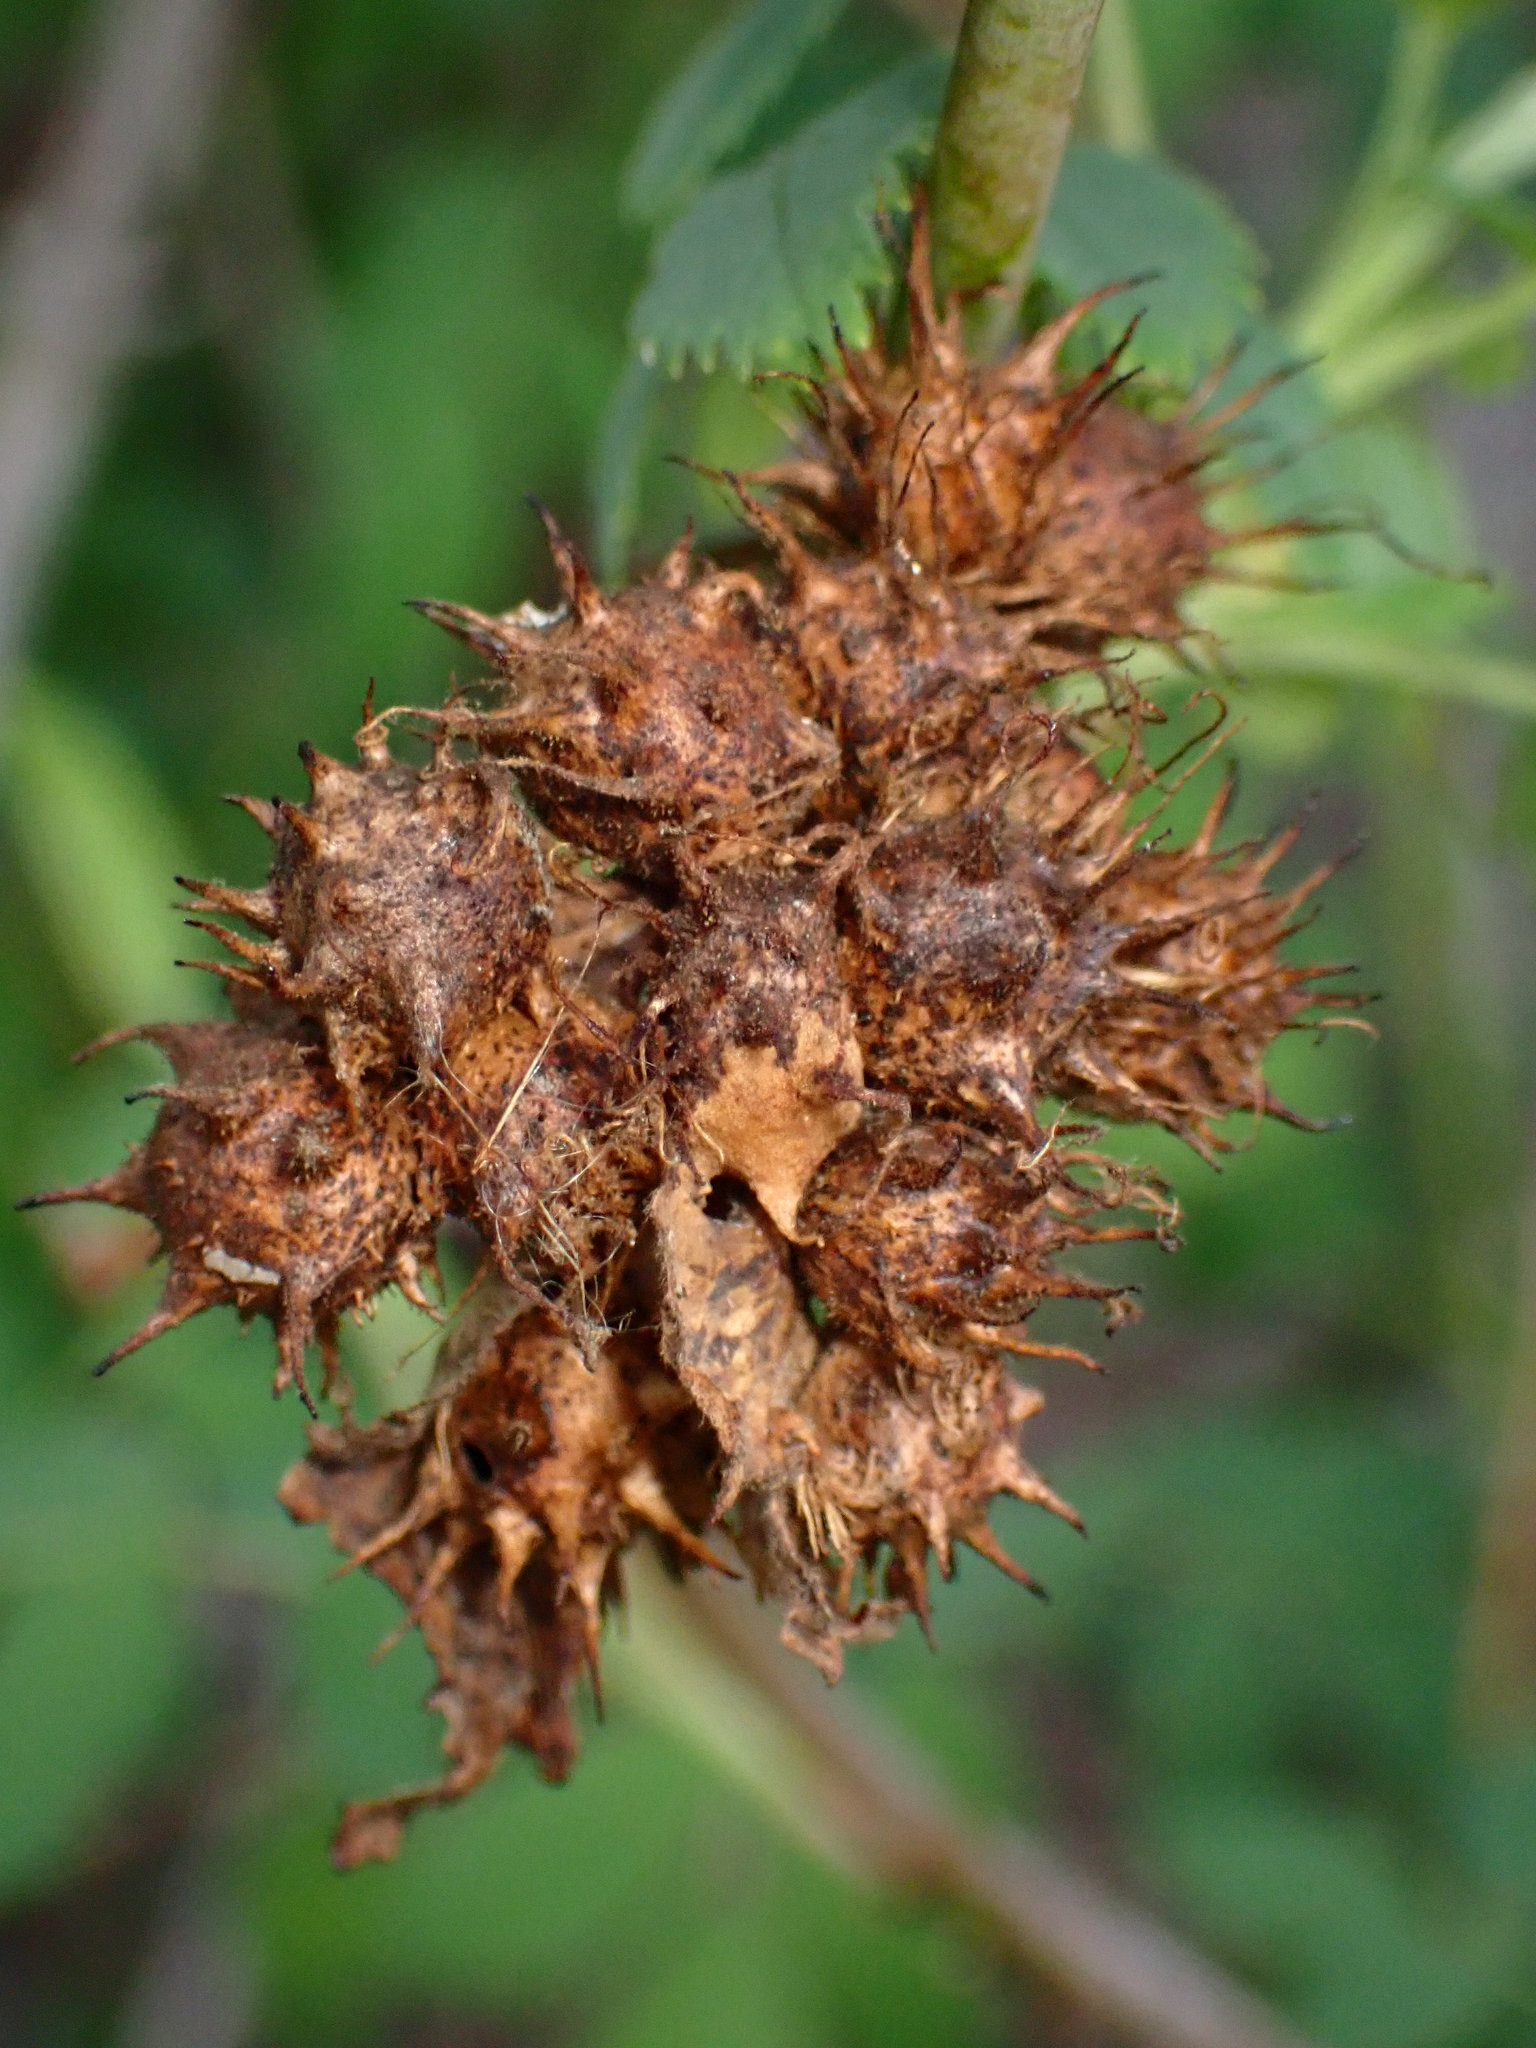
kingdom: Animalia
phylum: Arthropoda
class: Insecta
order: Hymenoptera
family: Cynipidae
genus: Diplolepis
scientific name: Diplolepis
